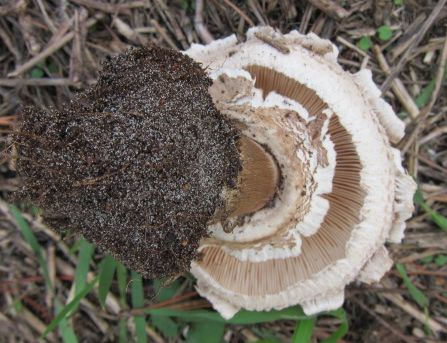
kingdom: Fungi
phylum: Basidiomycota
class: Agaricomycetes
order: Agaricales
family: Agaricaceae
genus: Chlorophyllum
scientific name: Chlorophyllum rhacodes
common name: Shaggy parasol
